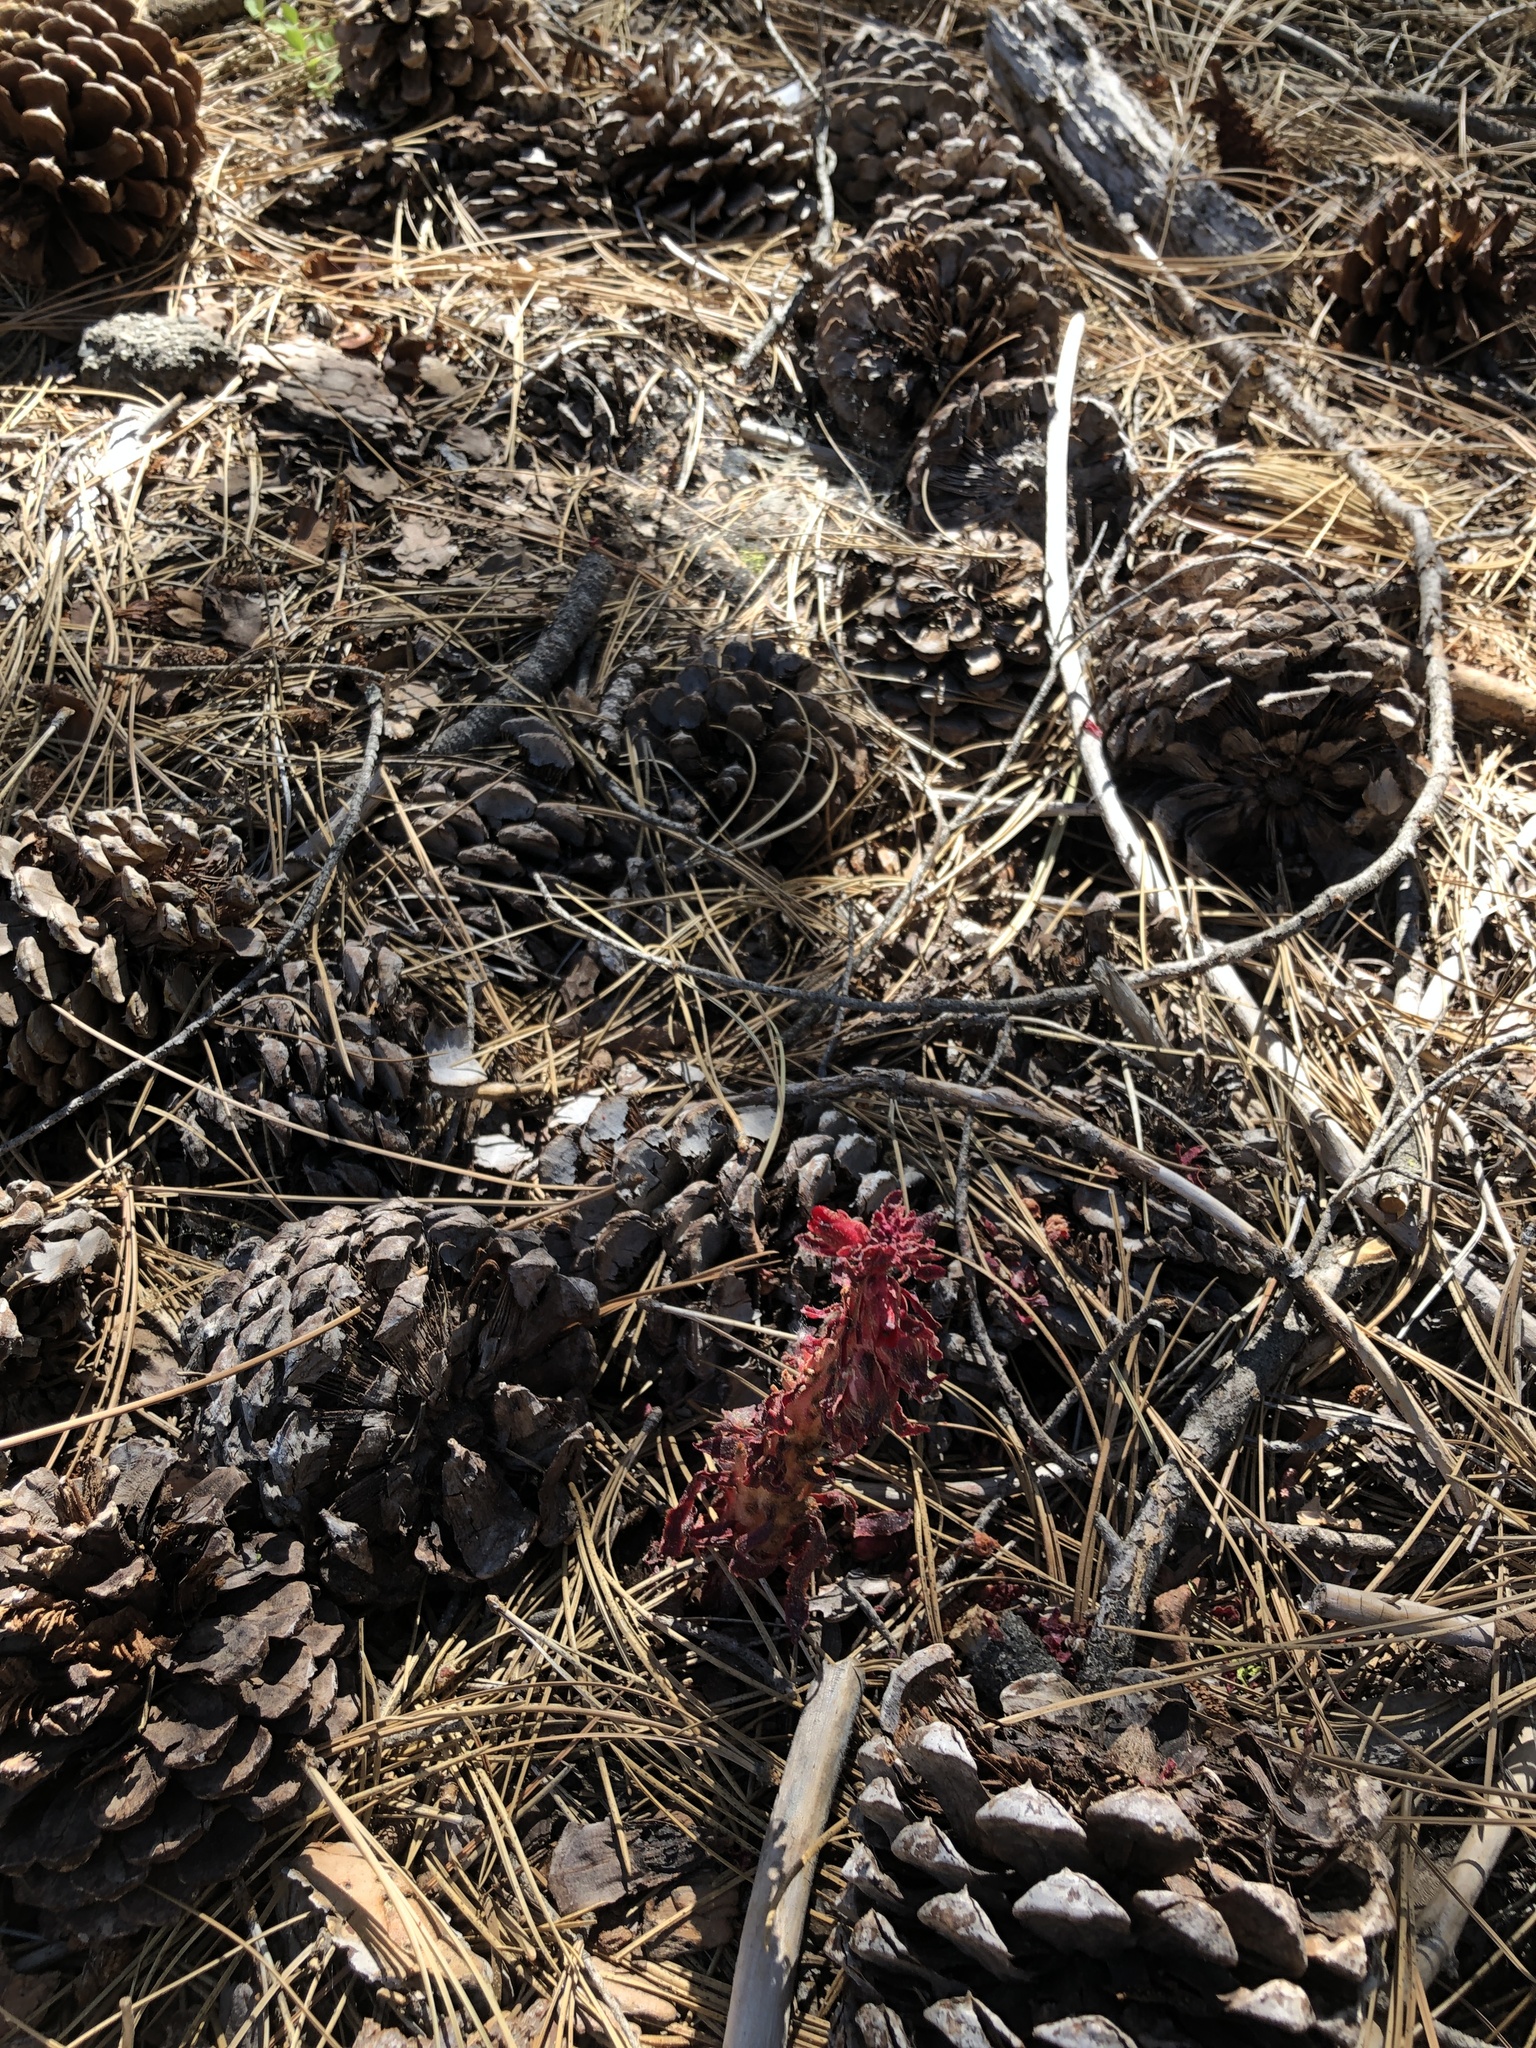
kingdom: Plantae
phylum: Tracheophyta
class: Magnoliopsida
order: Ericales
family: Ericaceae
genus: Sarcodes
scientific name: Sarcodes sanguinea
